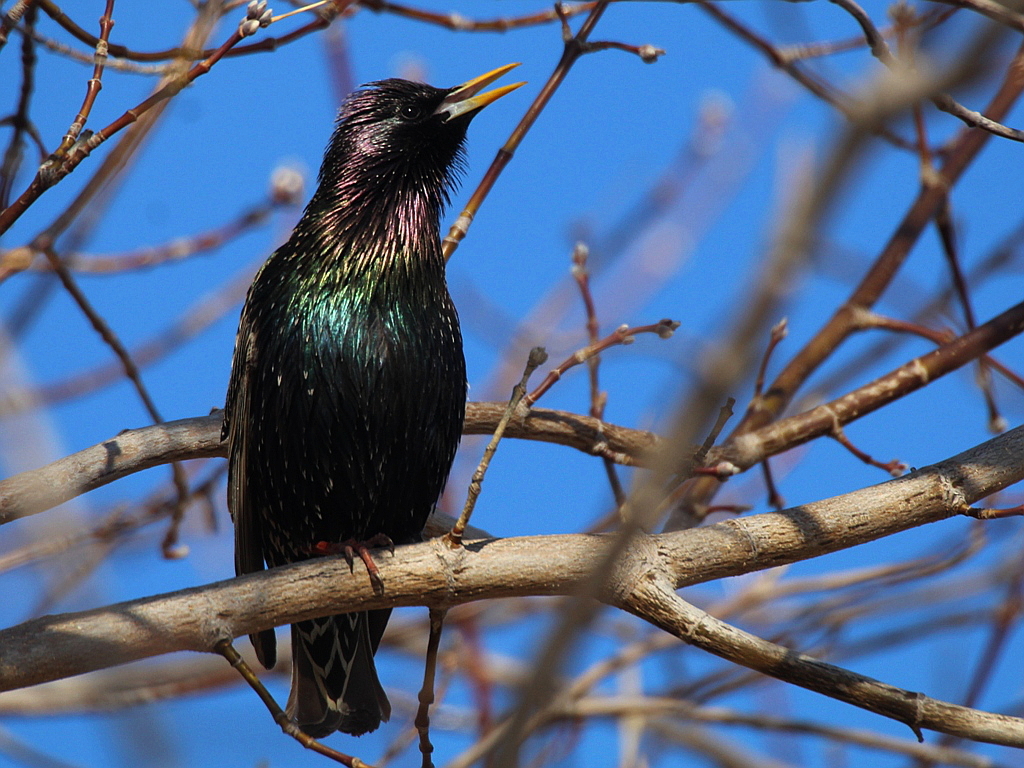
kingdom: Animalia
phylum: Chordata
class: Aves
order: Passeriformes
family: Sturnidae
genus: Sturnus
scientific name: Sturnus vulgaris
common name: Common starling
